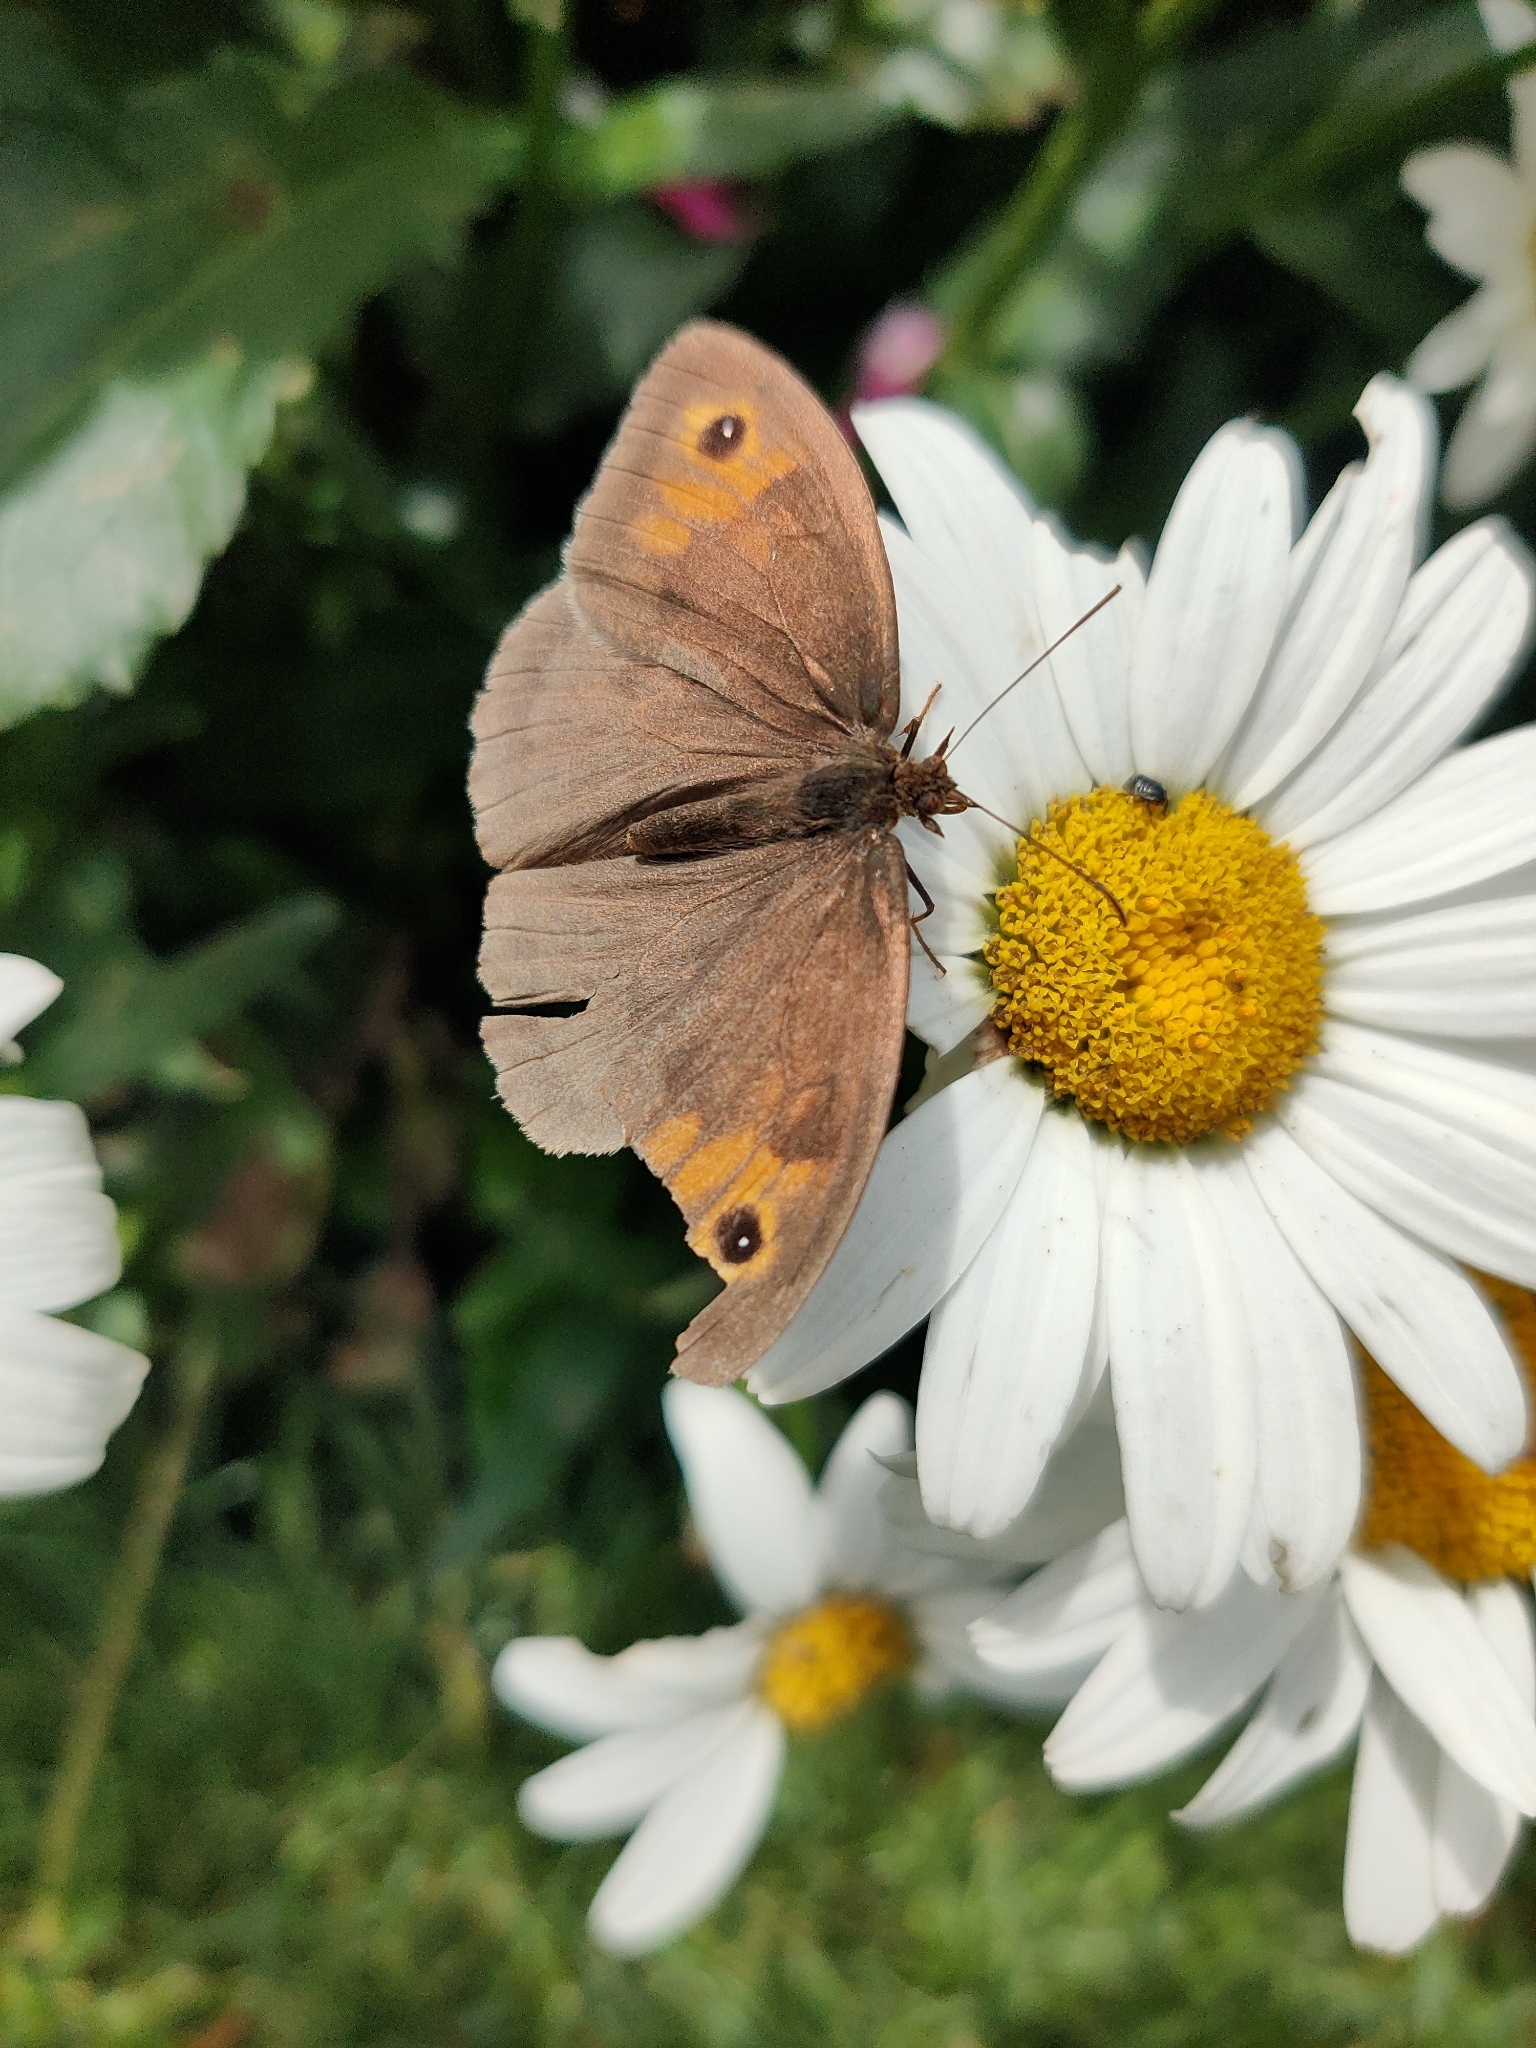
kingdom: Animalia
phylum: Arthropoda
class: Insecta
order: Lepidoptera
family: Nymphalidae
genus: Maniola
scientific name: Maniola jurtina
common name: Meadow brown
